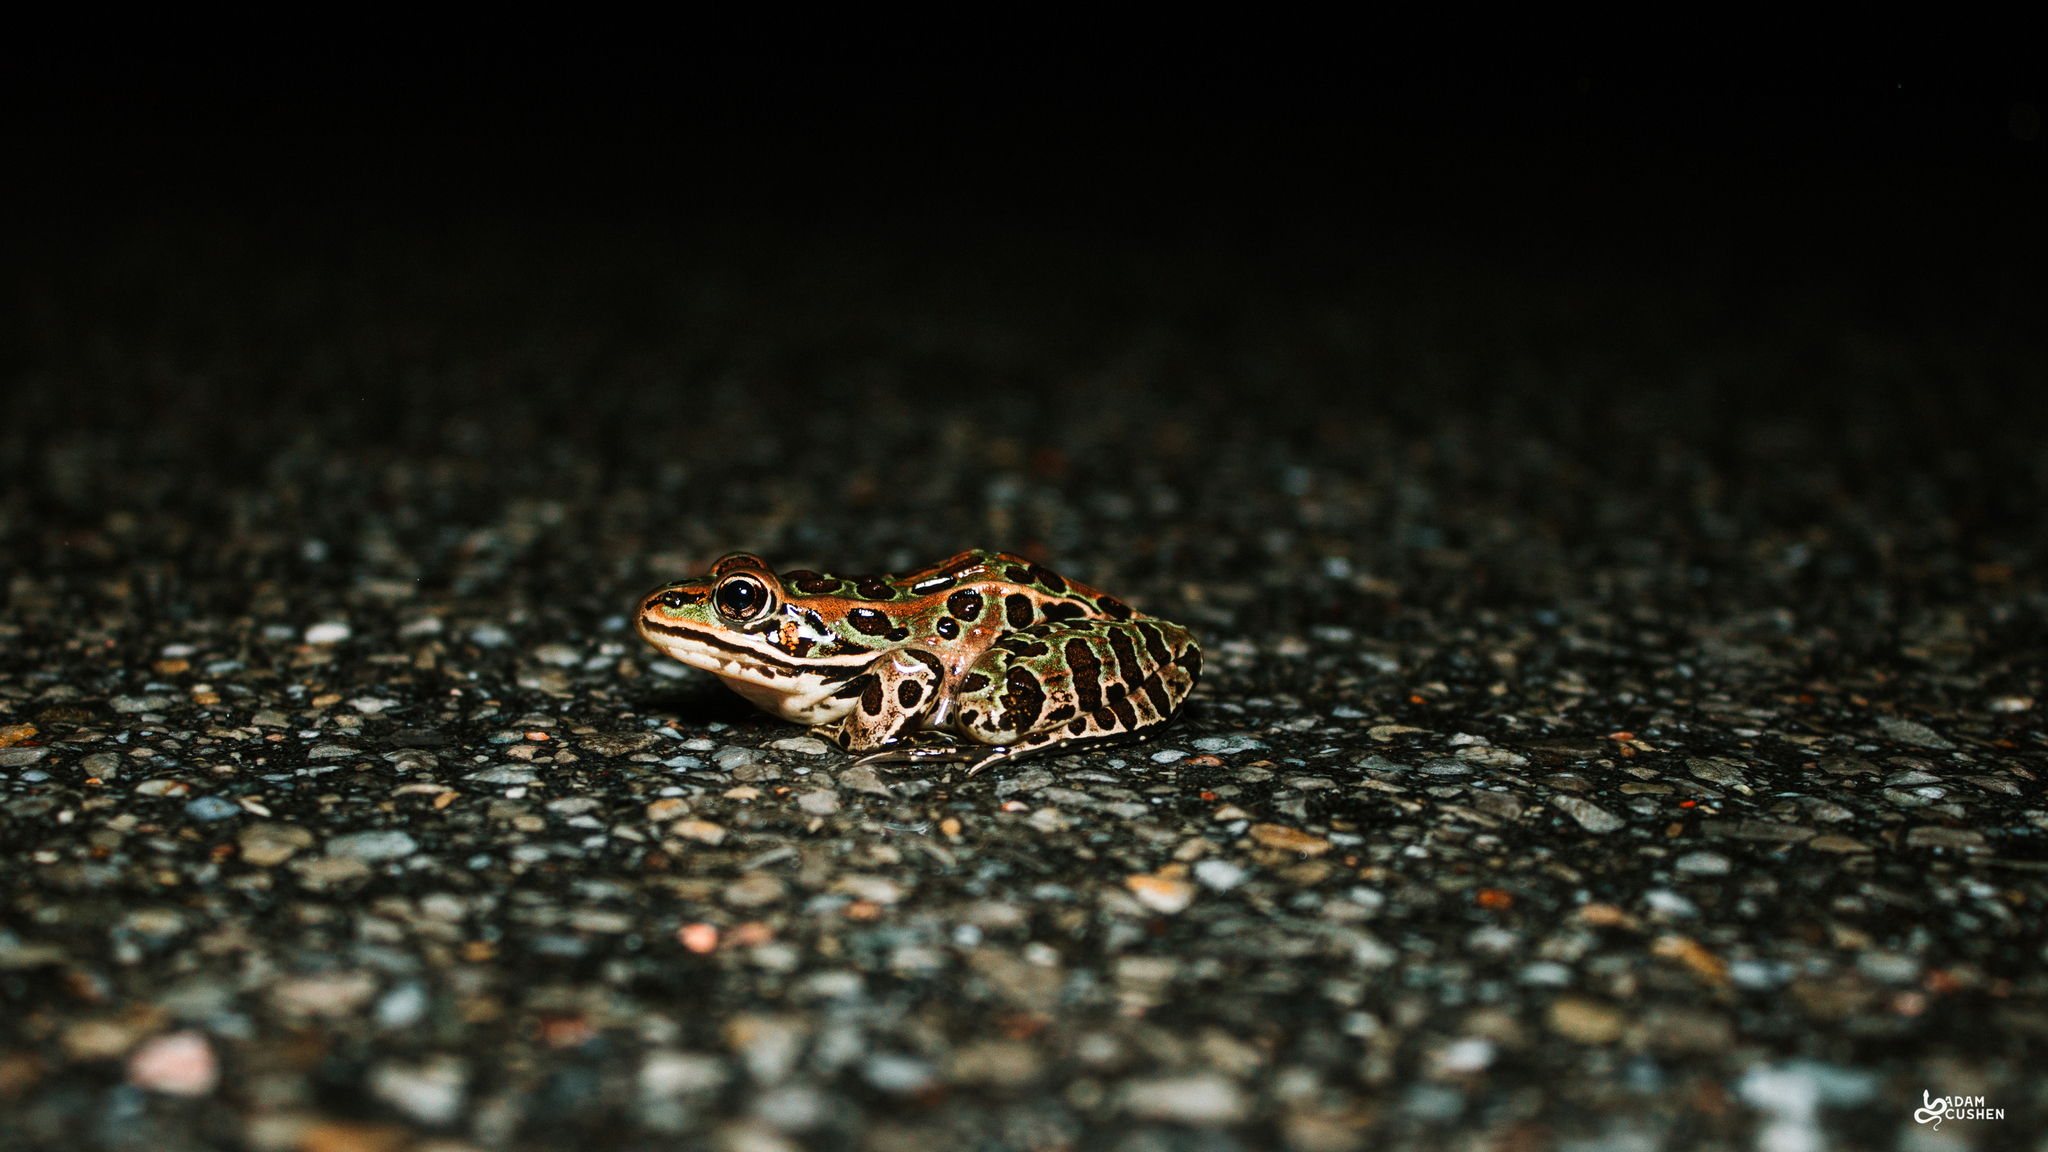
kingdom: Animalia
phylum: Chordata
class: Amphibia
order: Anura
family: Ranidae
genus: Lithobates
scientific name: Lithobates pipiens
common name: Northern leopard frog
